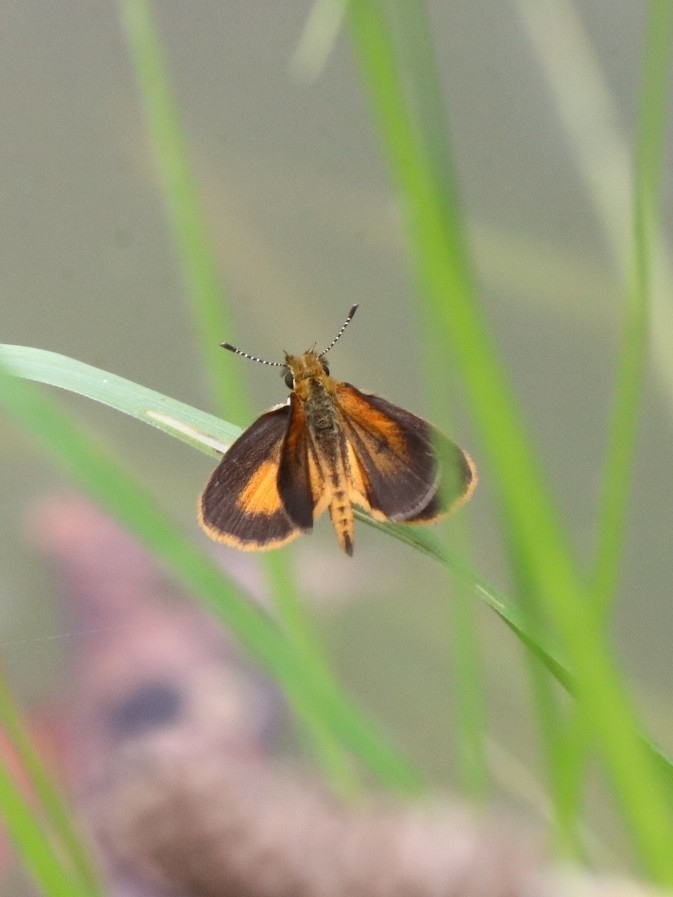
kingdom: Animalia
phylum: Arthropoda
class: Insecta
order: Lepidoptera
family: Hesperiidae
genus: Ancyloxypha
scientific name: Ancyloxypha numitor
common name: Least skipper
